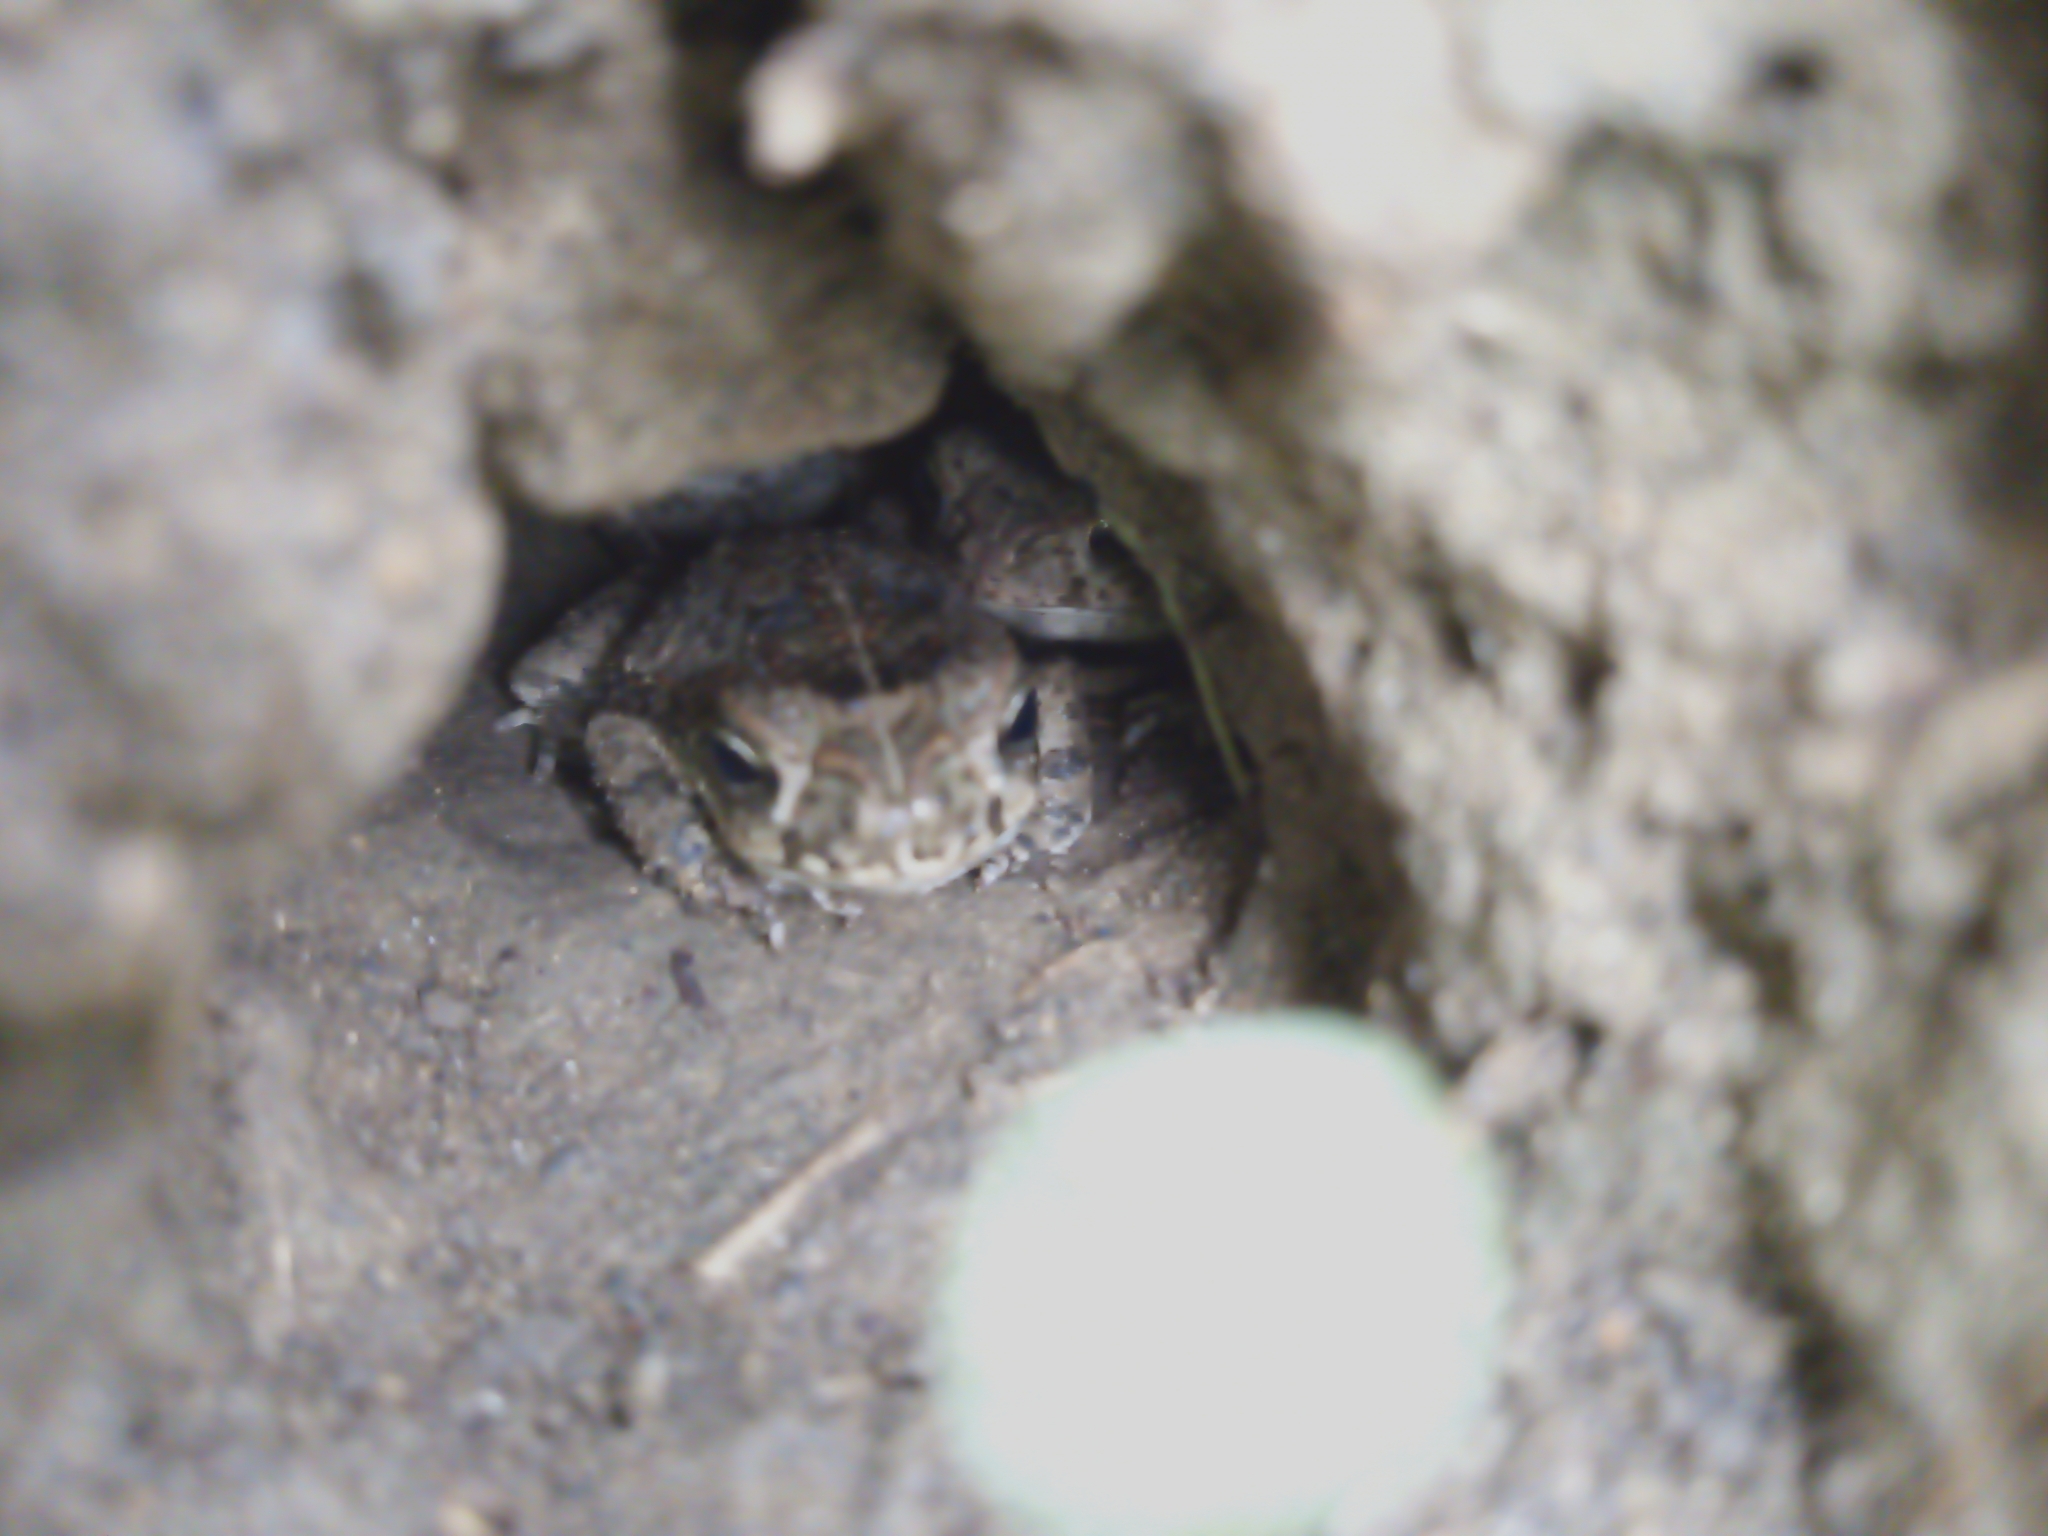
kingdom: Animalia
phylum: Chordata
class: Amphibia
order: Anura
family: Bufonidae
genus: Rhinella
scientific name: Rhinella horribilis
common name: Mesoamerican cane toad
